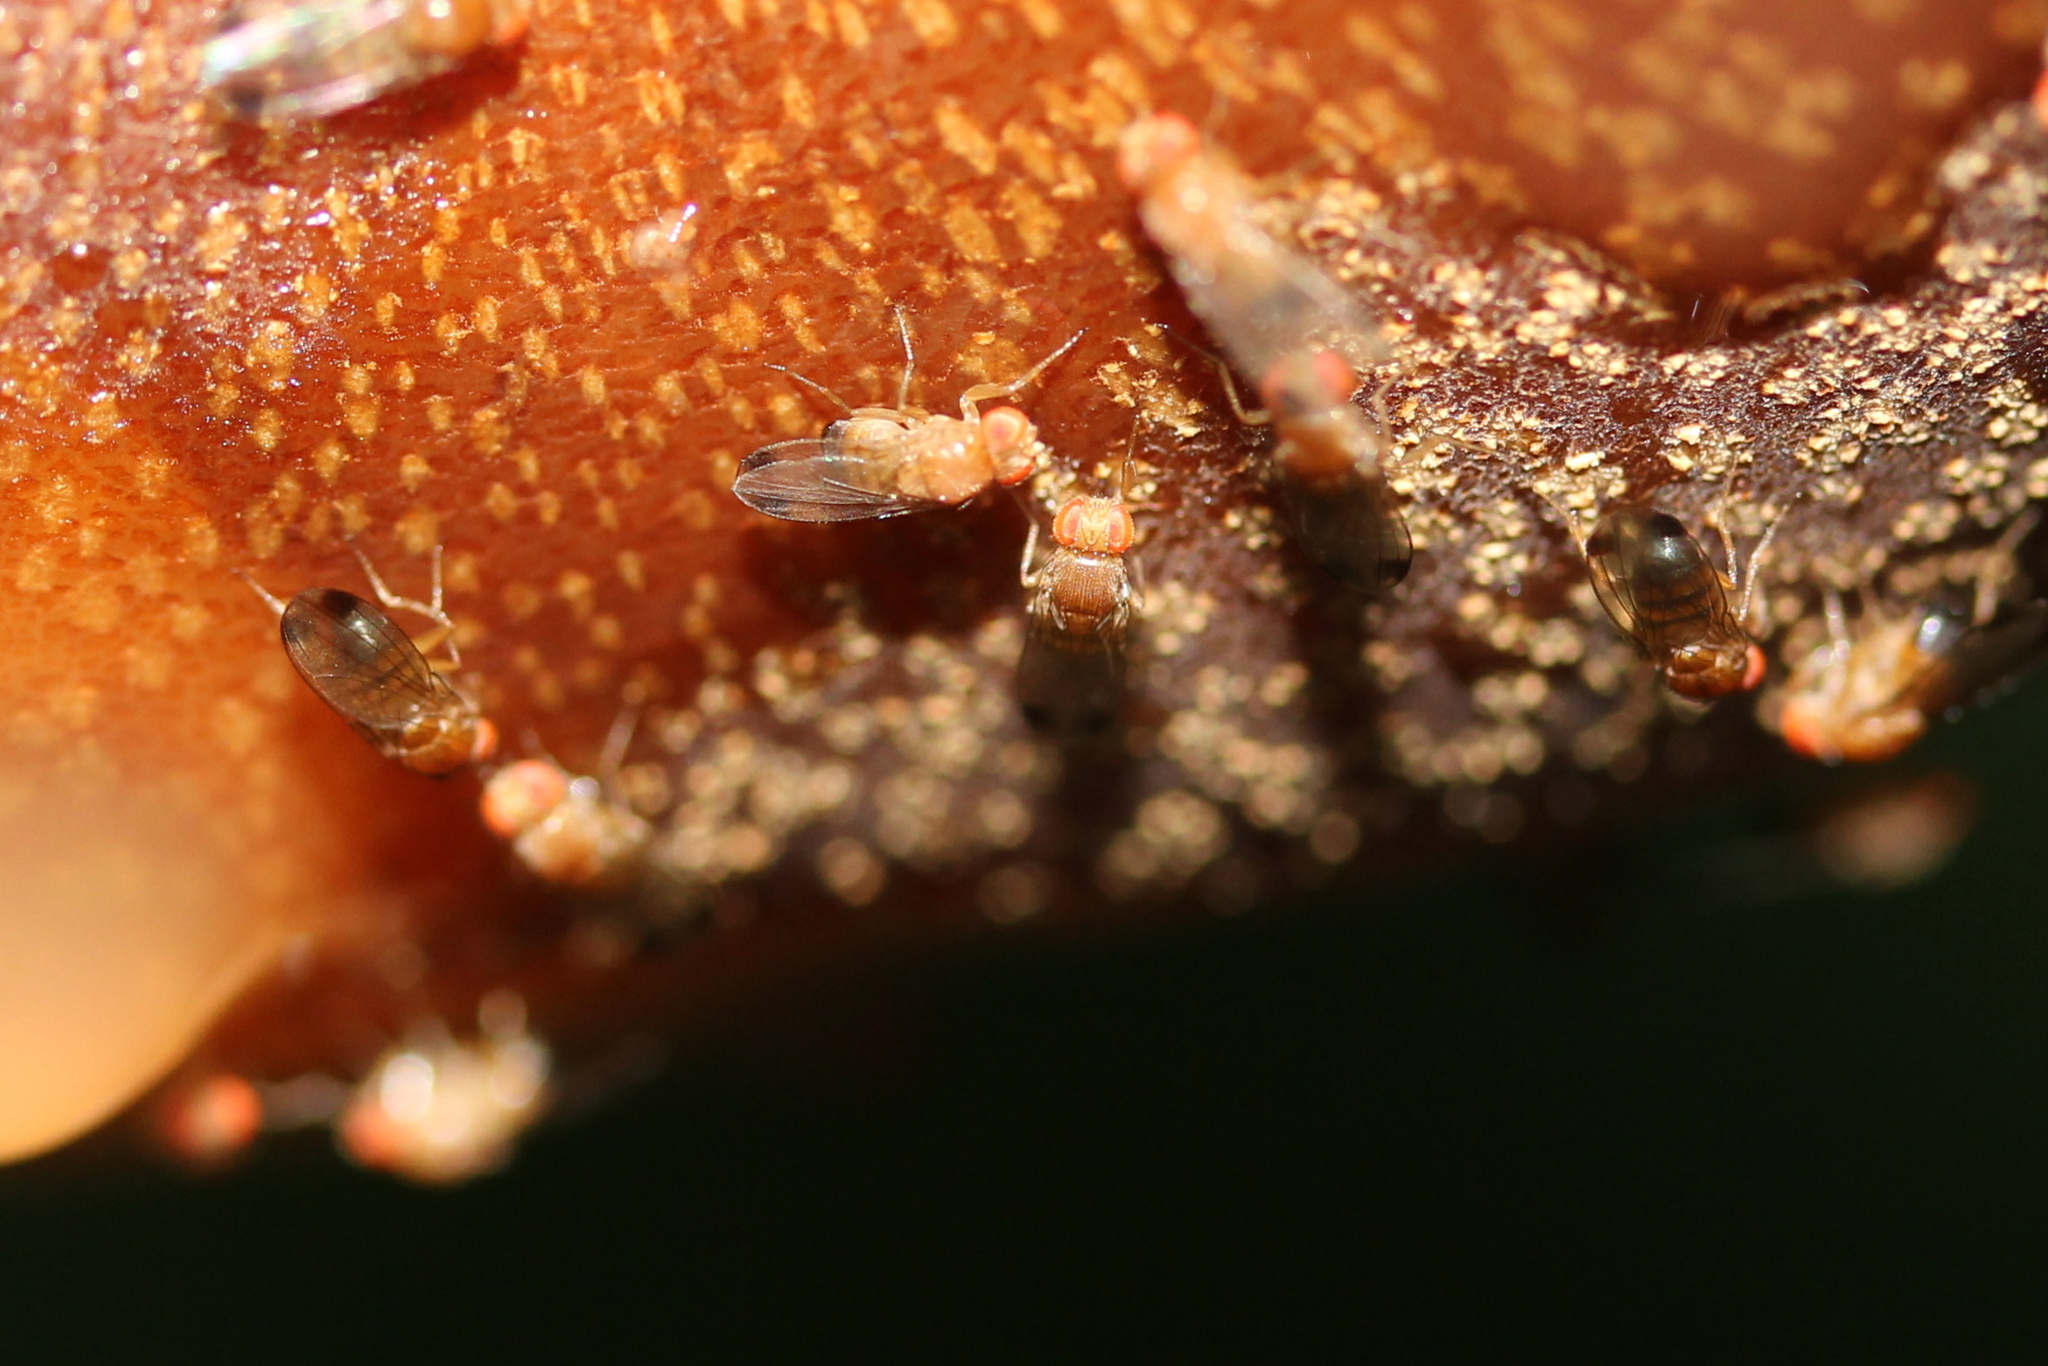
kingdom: Animalia
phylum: Arthropoda
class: Insecta
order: Diptera
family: Drosophilidae
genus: Drosophila
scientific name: Drosophila suzukii
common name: Spotted-wing drosophila
